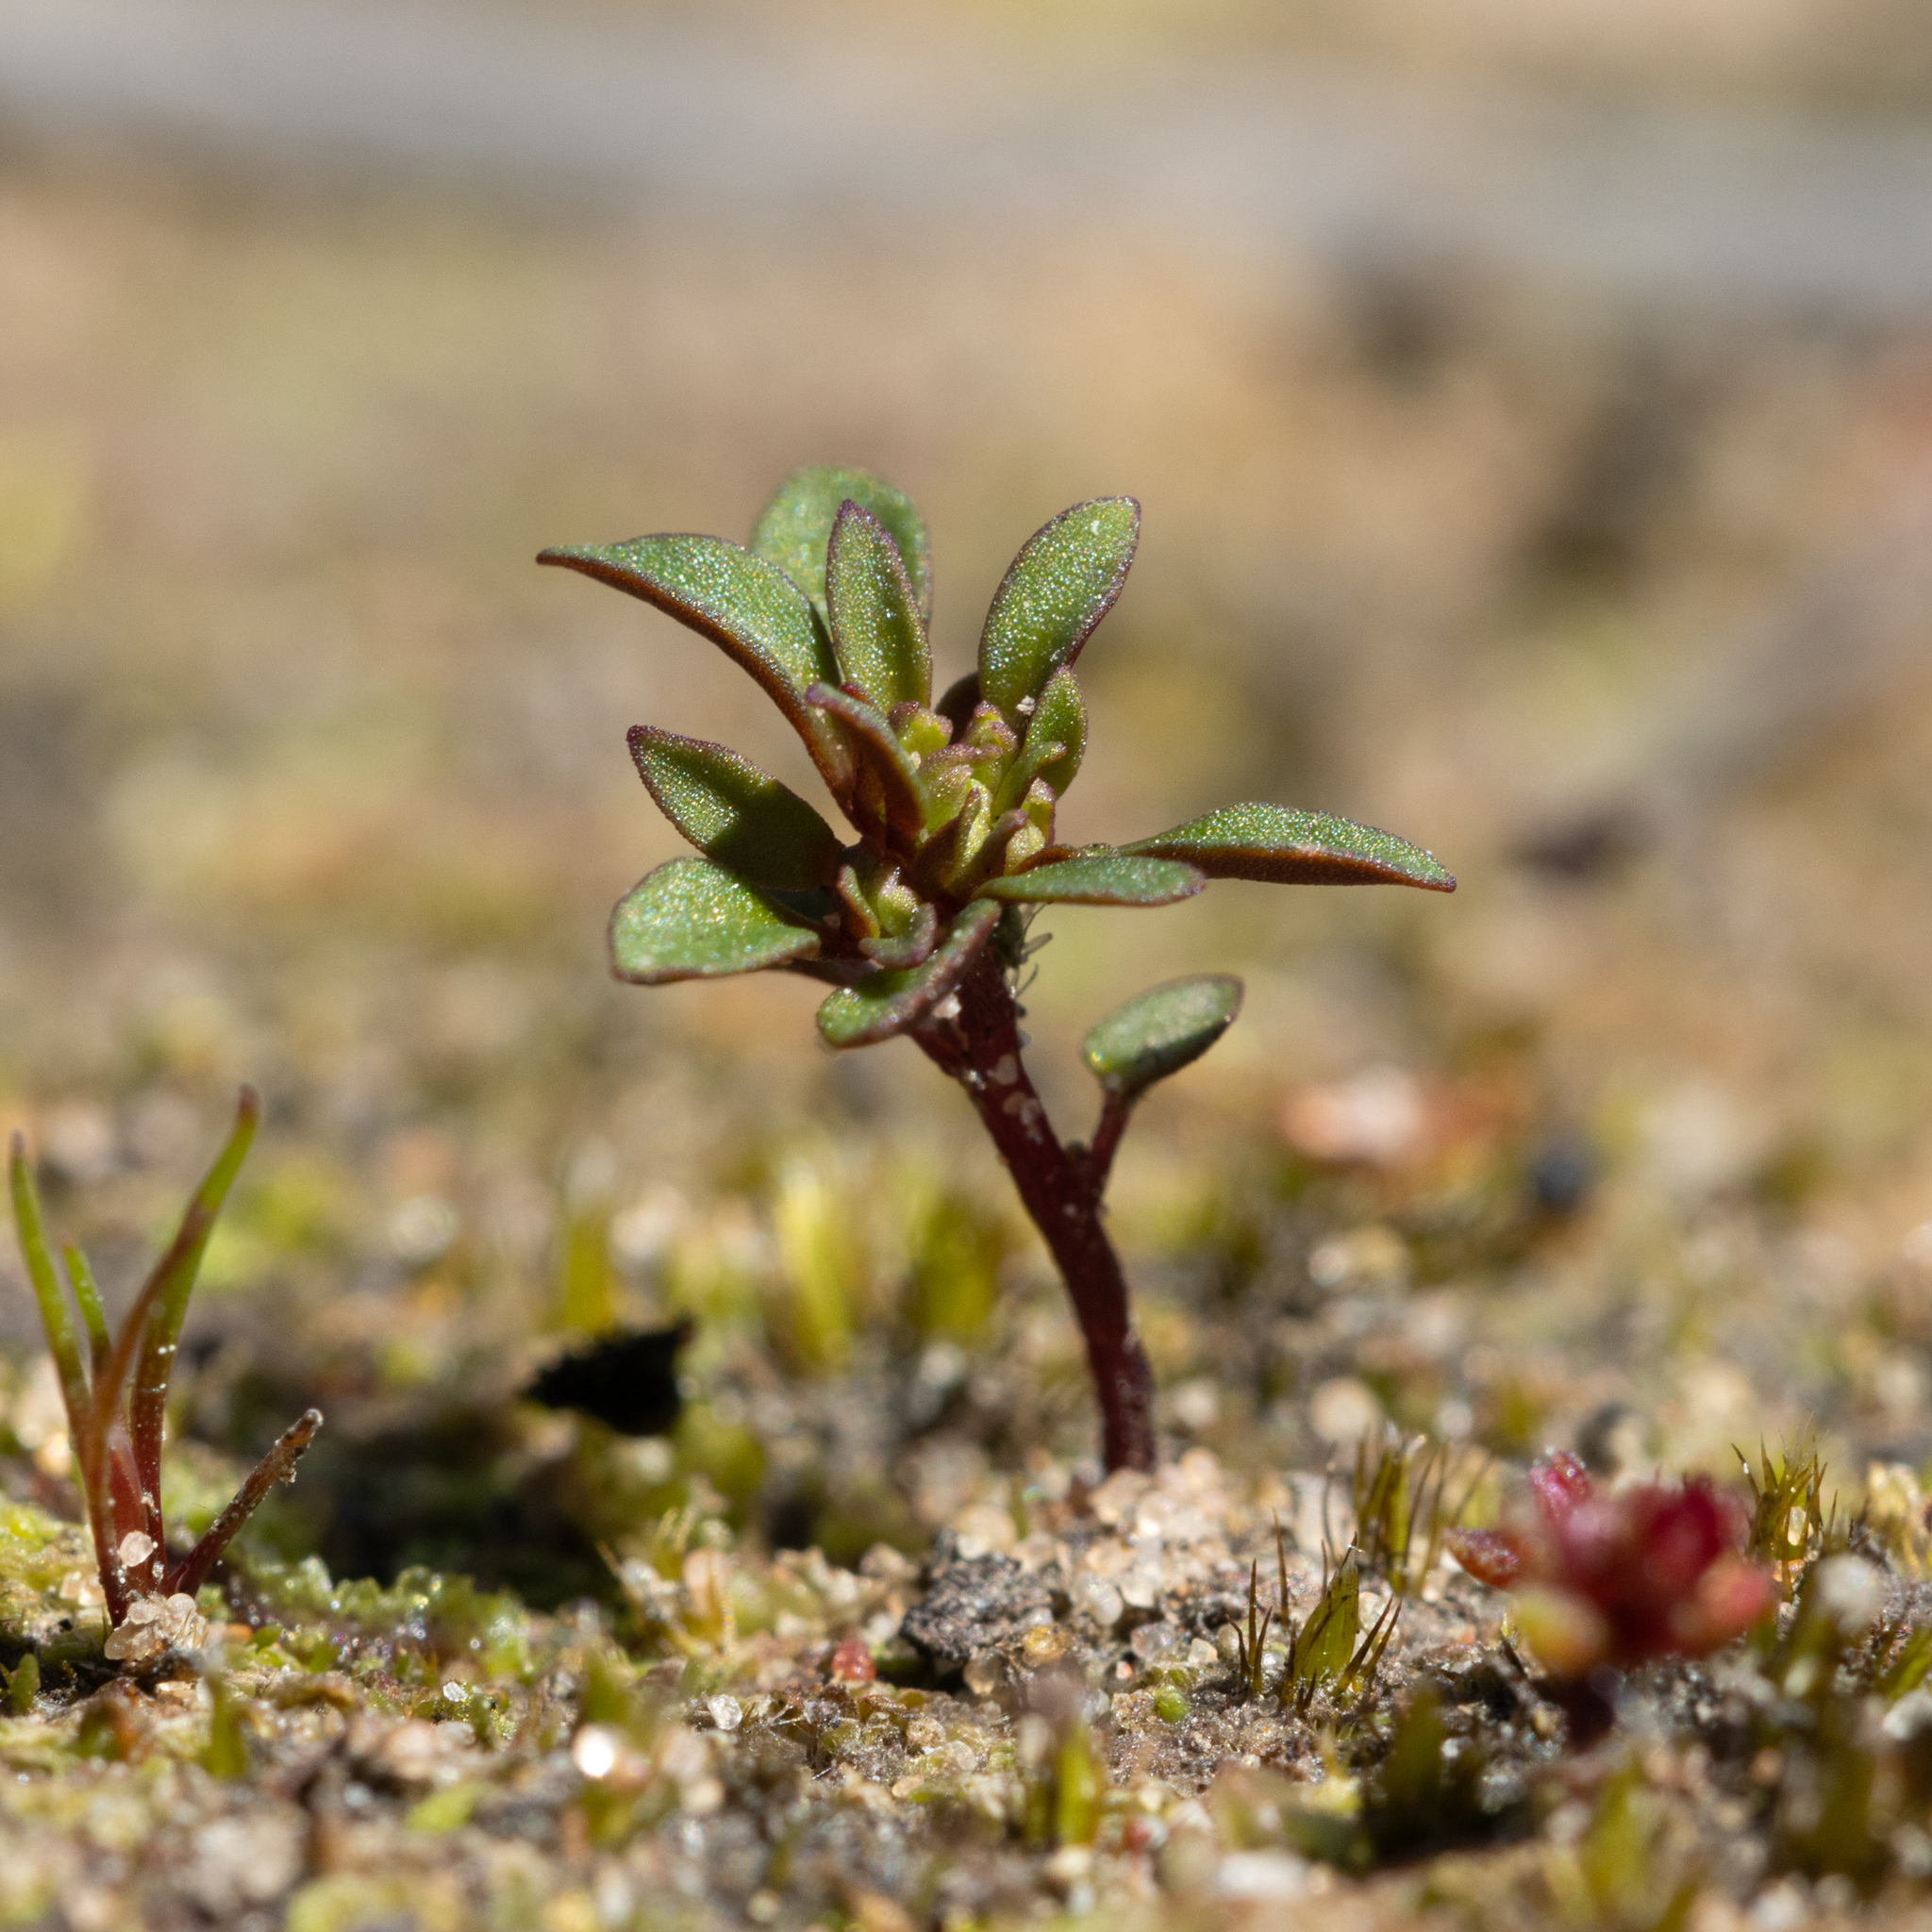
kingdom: Plantae
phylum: Tracheophyta
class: Magnoliopsida
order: Asterales
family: Stylidiaceae
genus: Levenhookia
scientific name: Levenhookia pusilla
